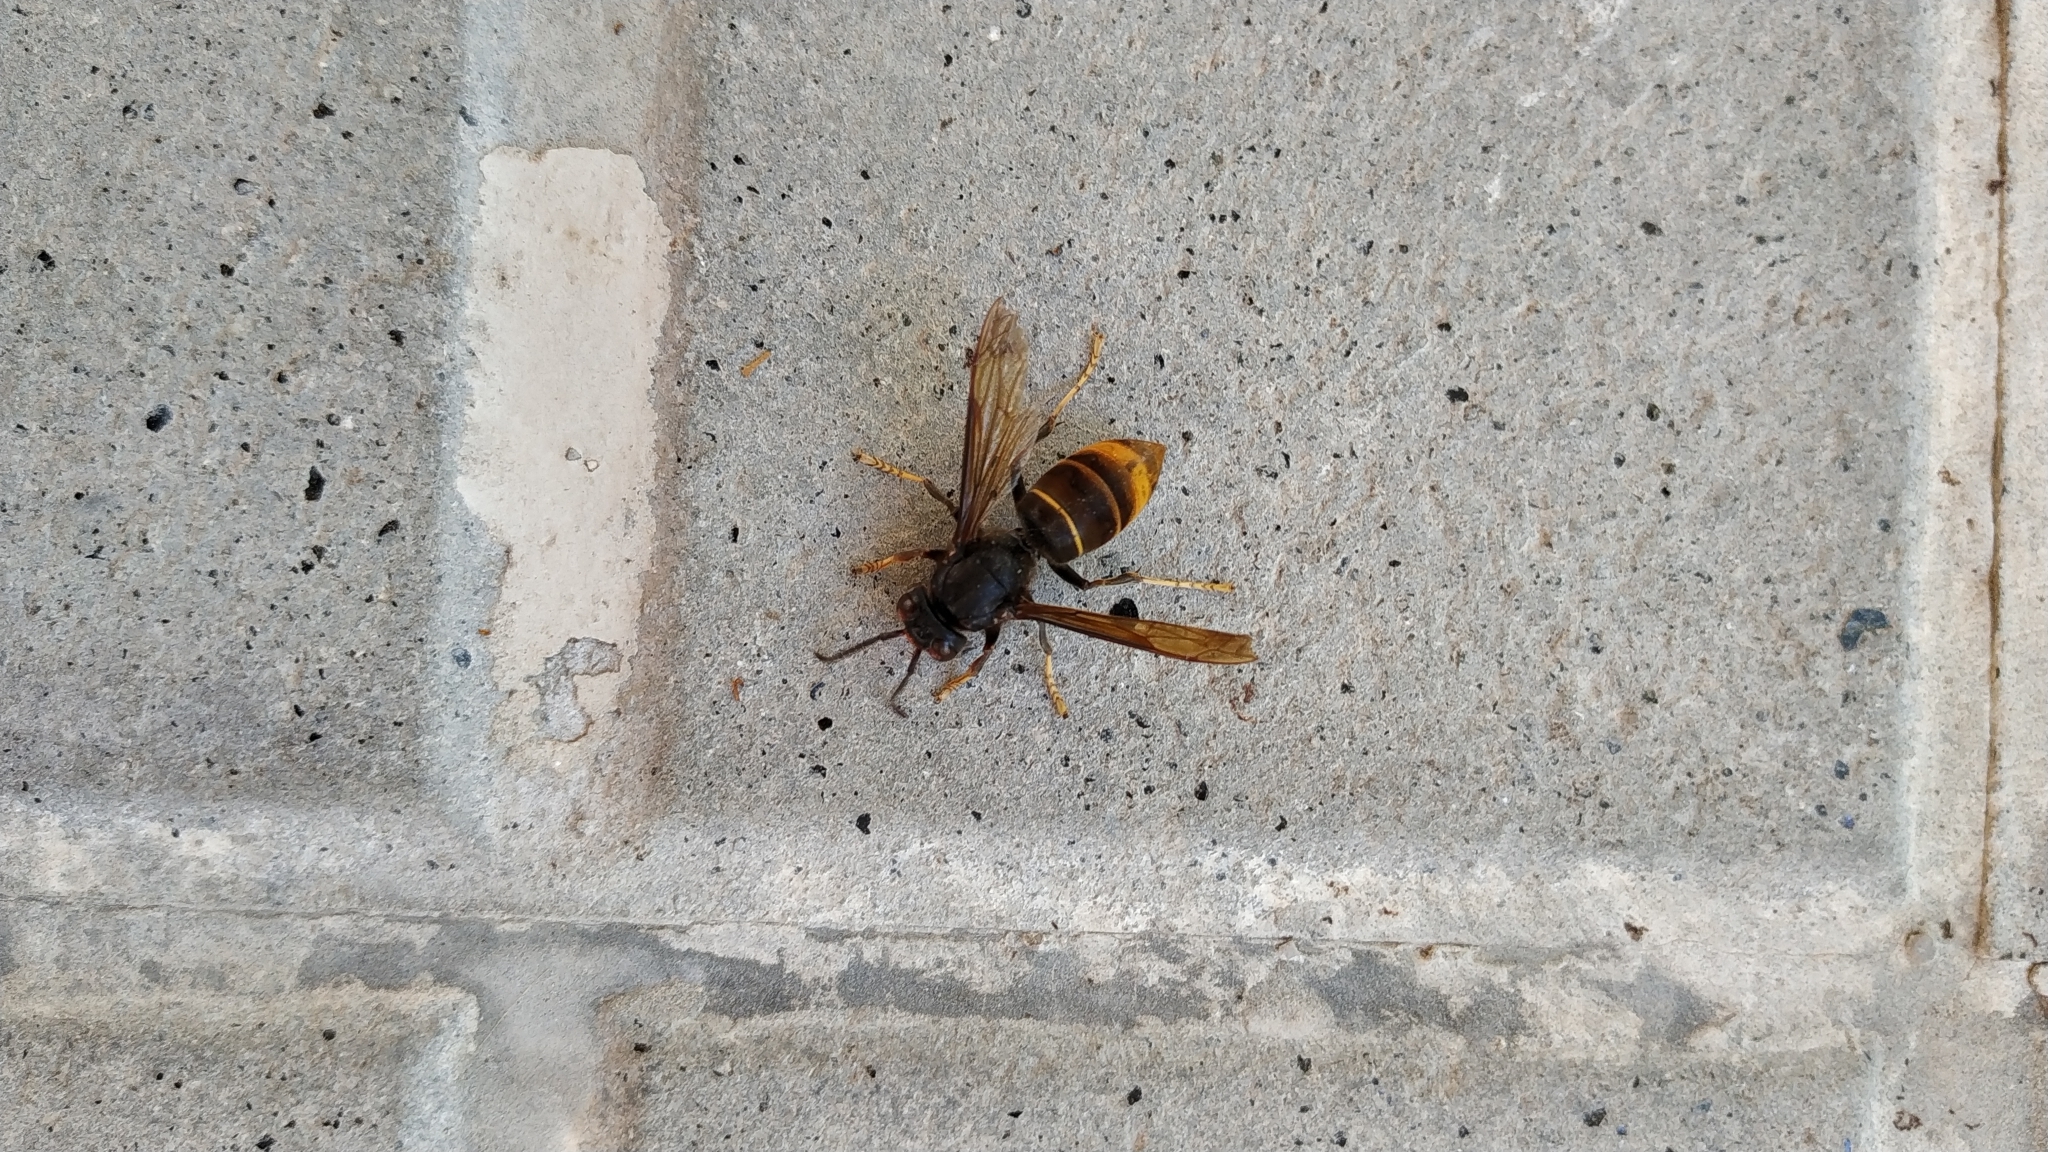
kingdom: Animalia
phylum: Arthropoda
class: Insecta
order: Hymenoptera
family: Vespidae
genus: Vespa
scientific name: Vespa velutina
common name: Asian hornet
